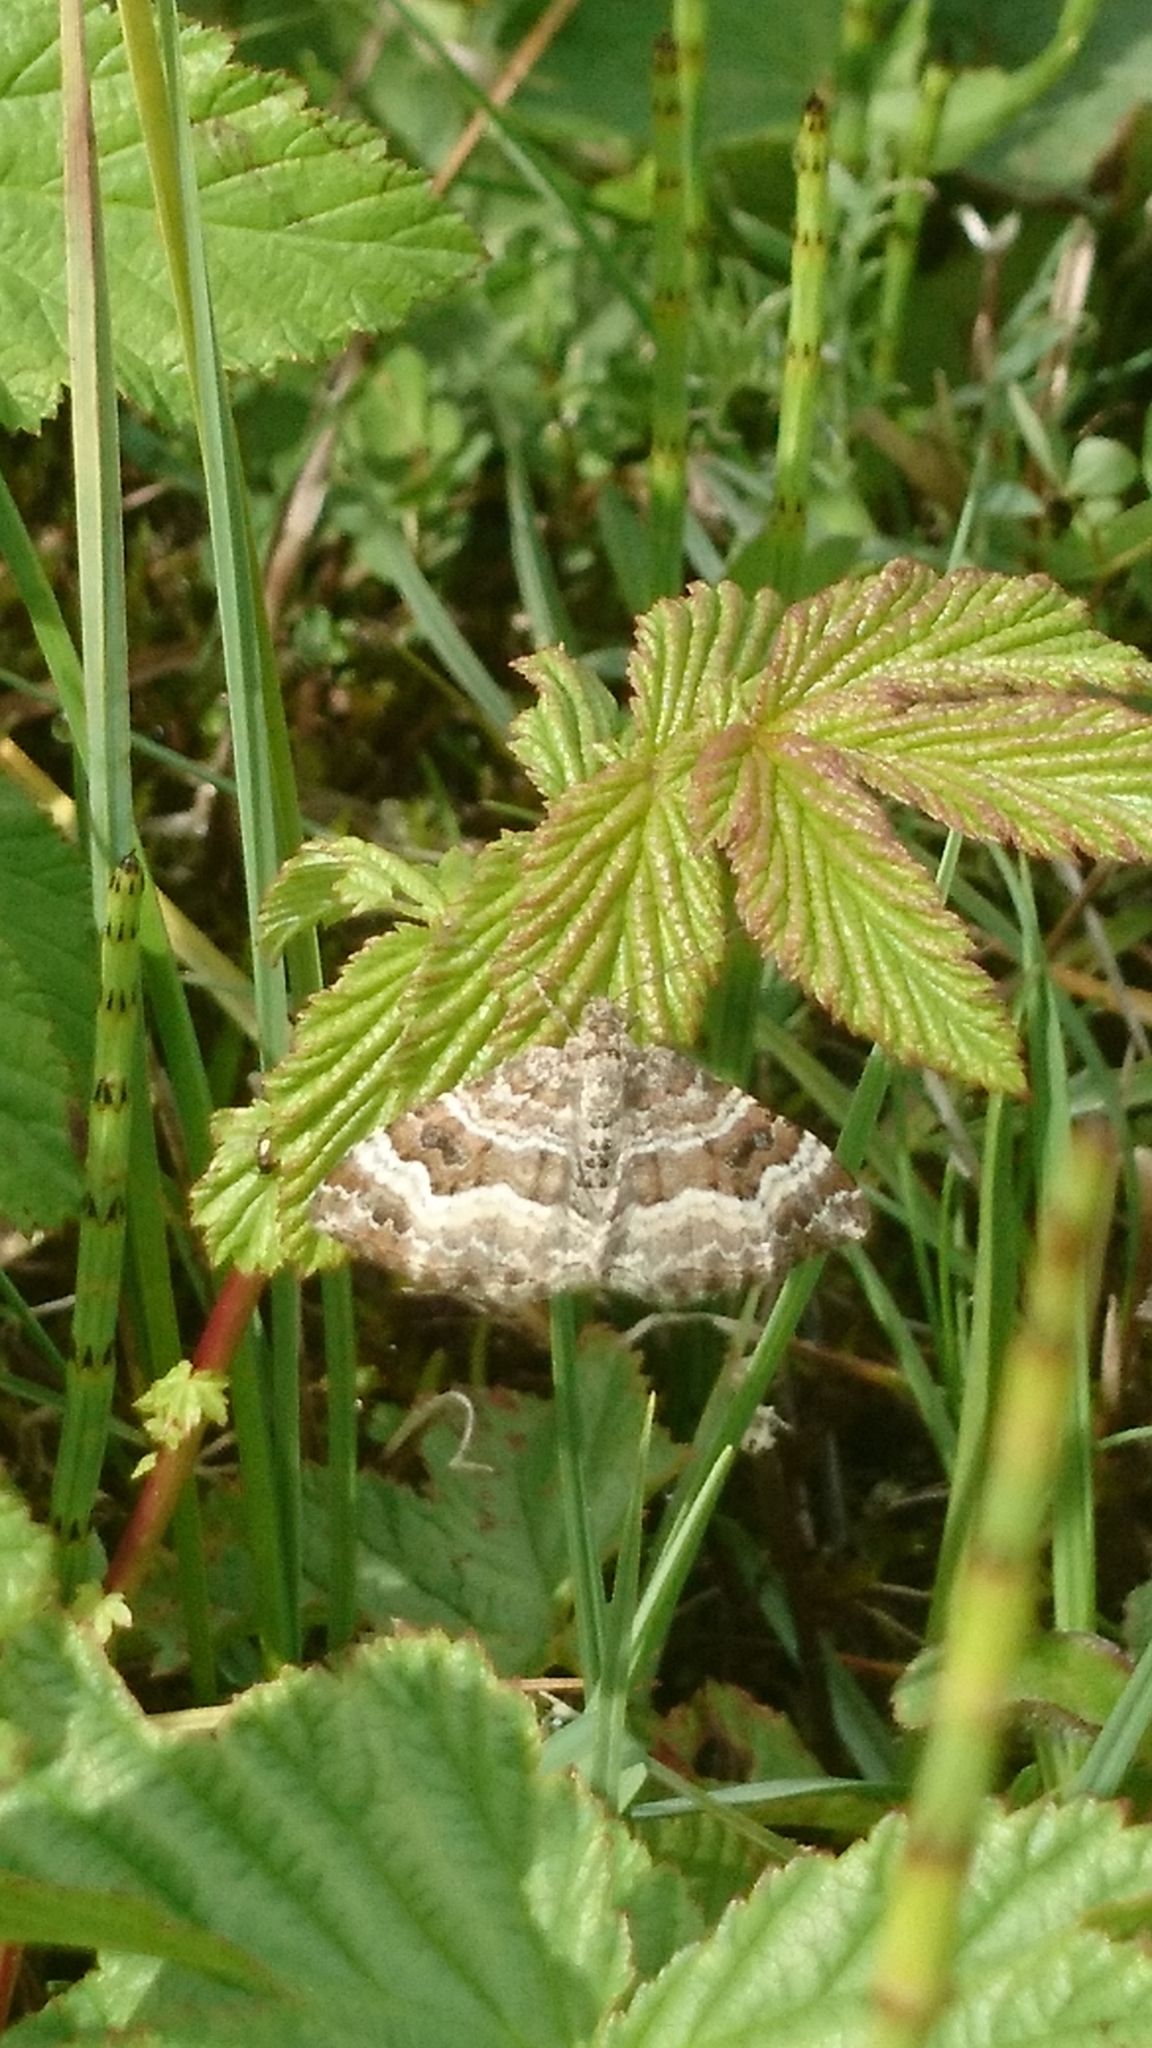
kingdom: Animalia
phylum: Arthropoda
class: Insecta
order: Lepidoptera
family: Geometridae
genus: Epirrhoe
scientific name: Epirrhoe alternata
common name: Common carpet
